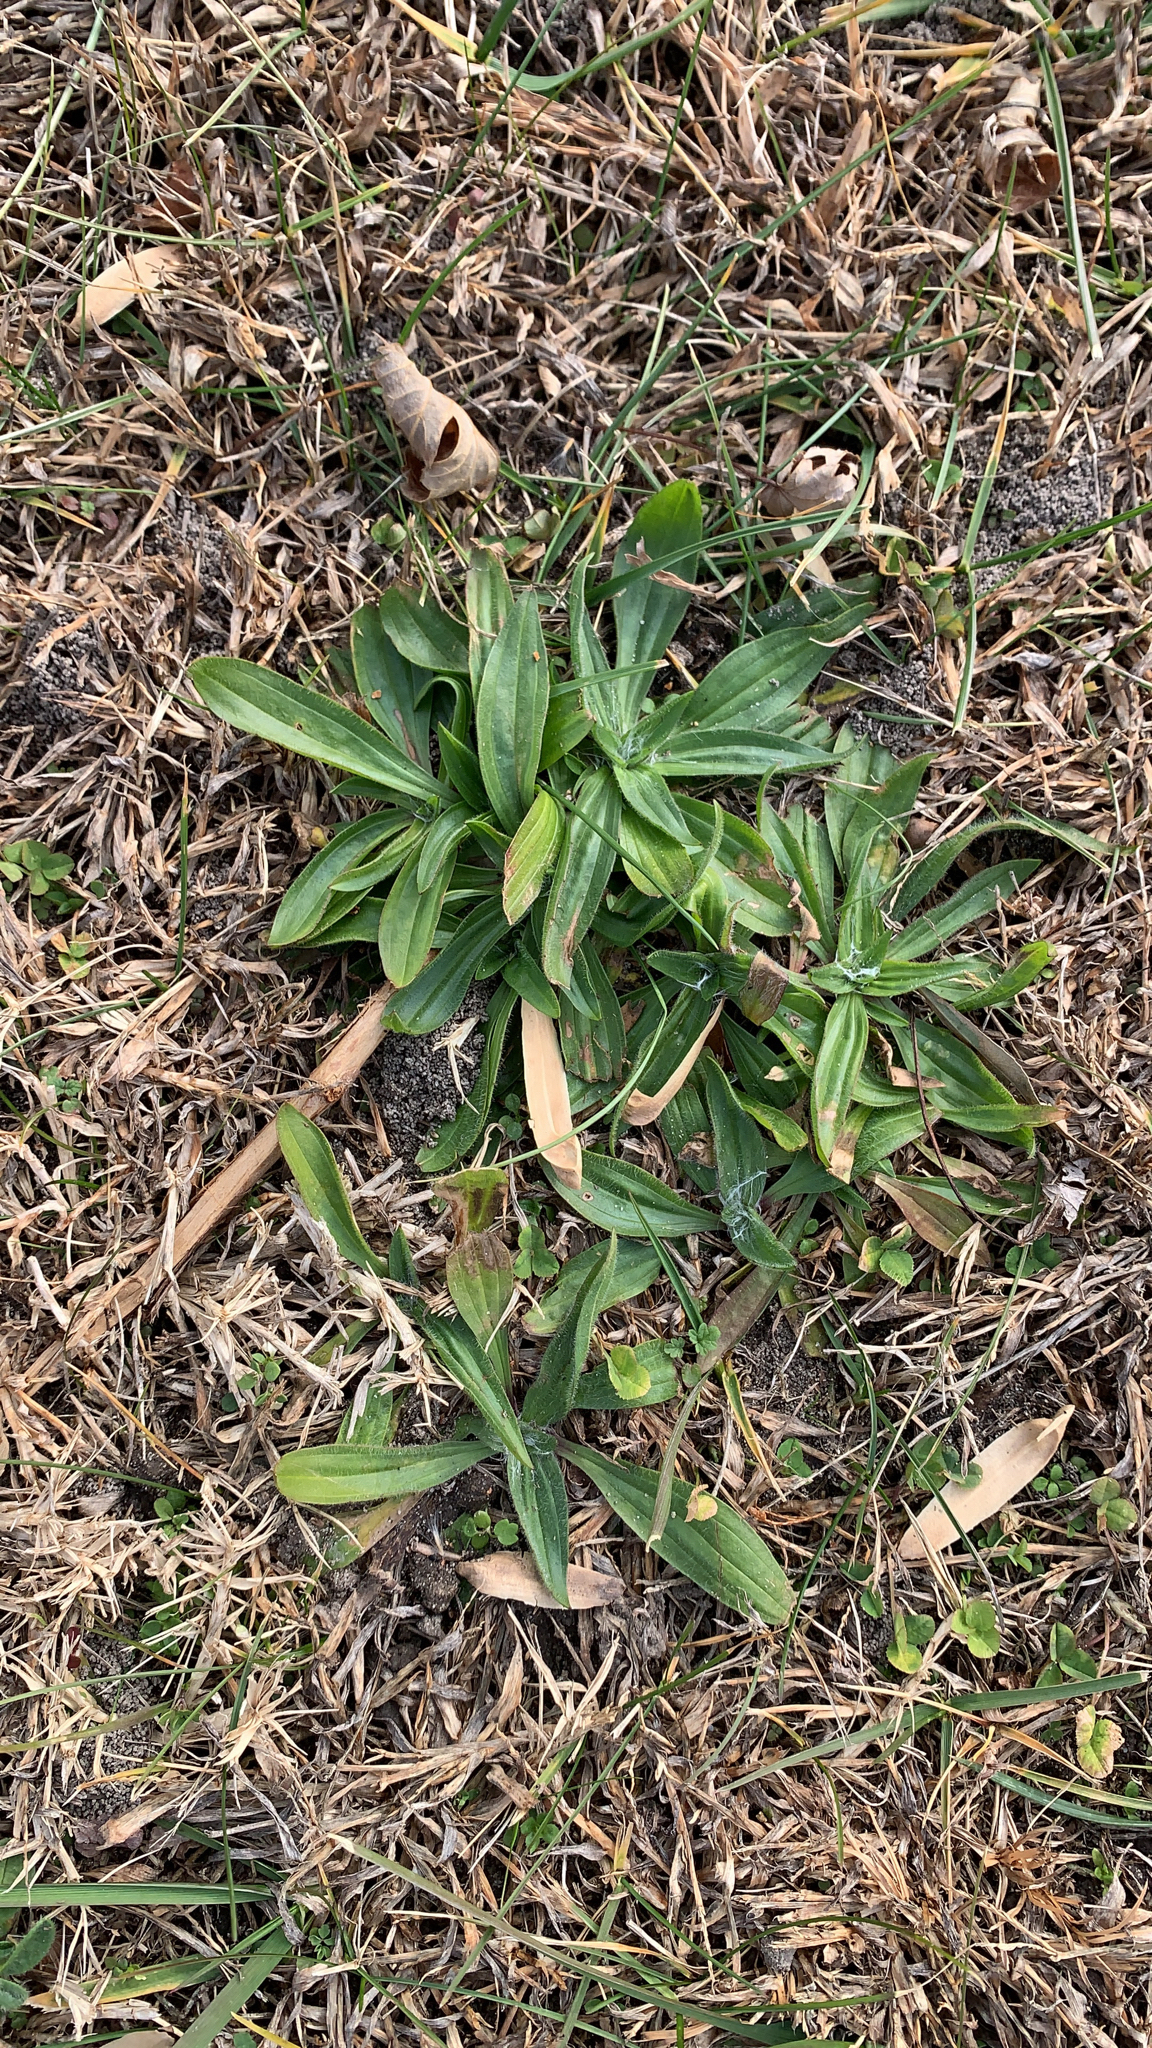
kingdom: Plantae
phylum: Tracheophyta
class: Magnoliopsida
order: Lamiales
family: Plantaginaceae
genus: Plantago
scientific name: Plantago lanceolata
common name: Ribwort plantain
